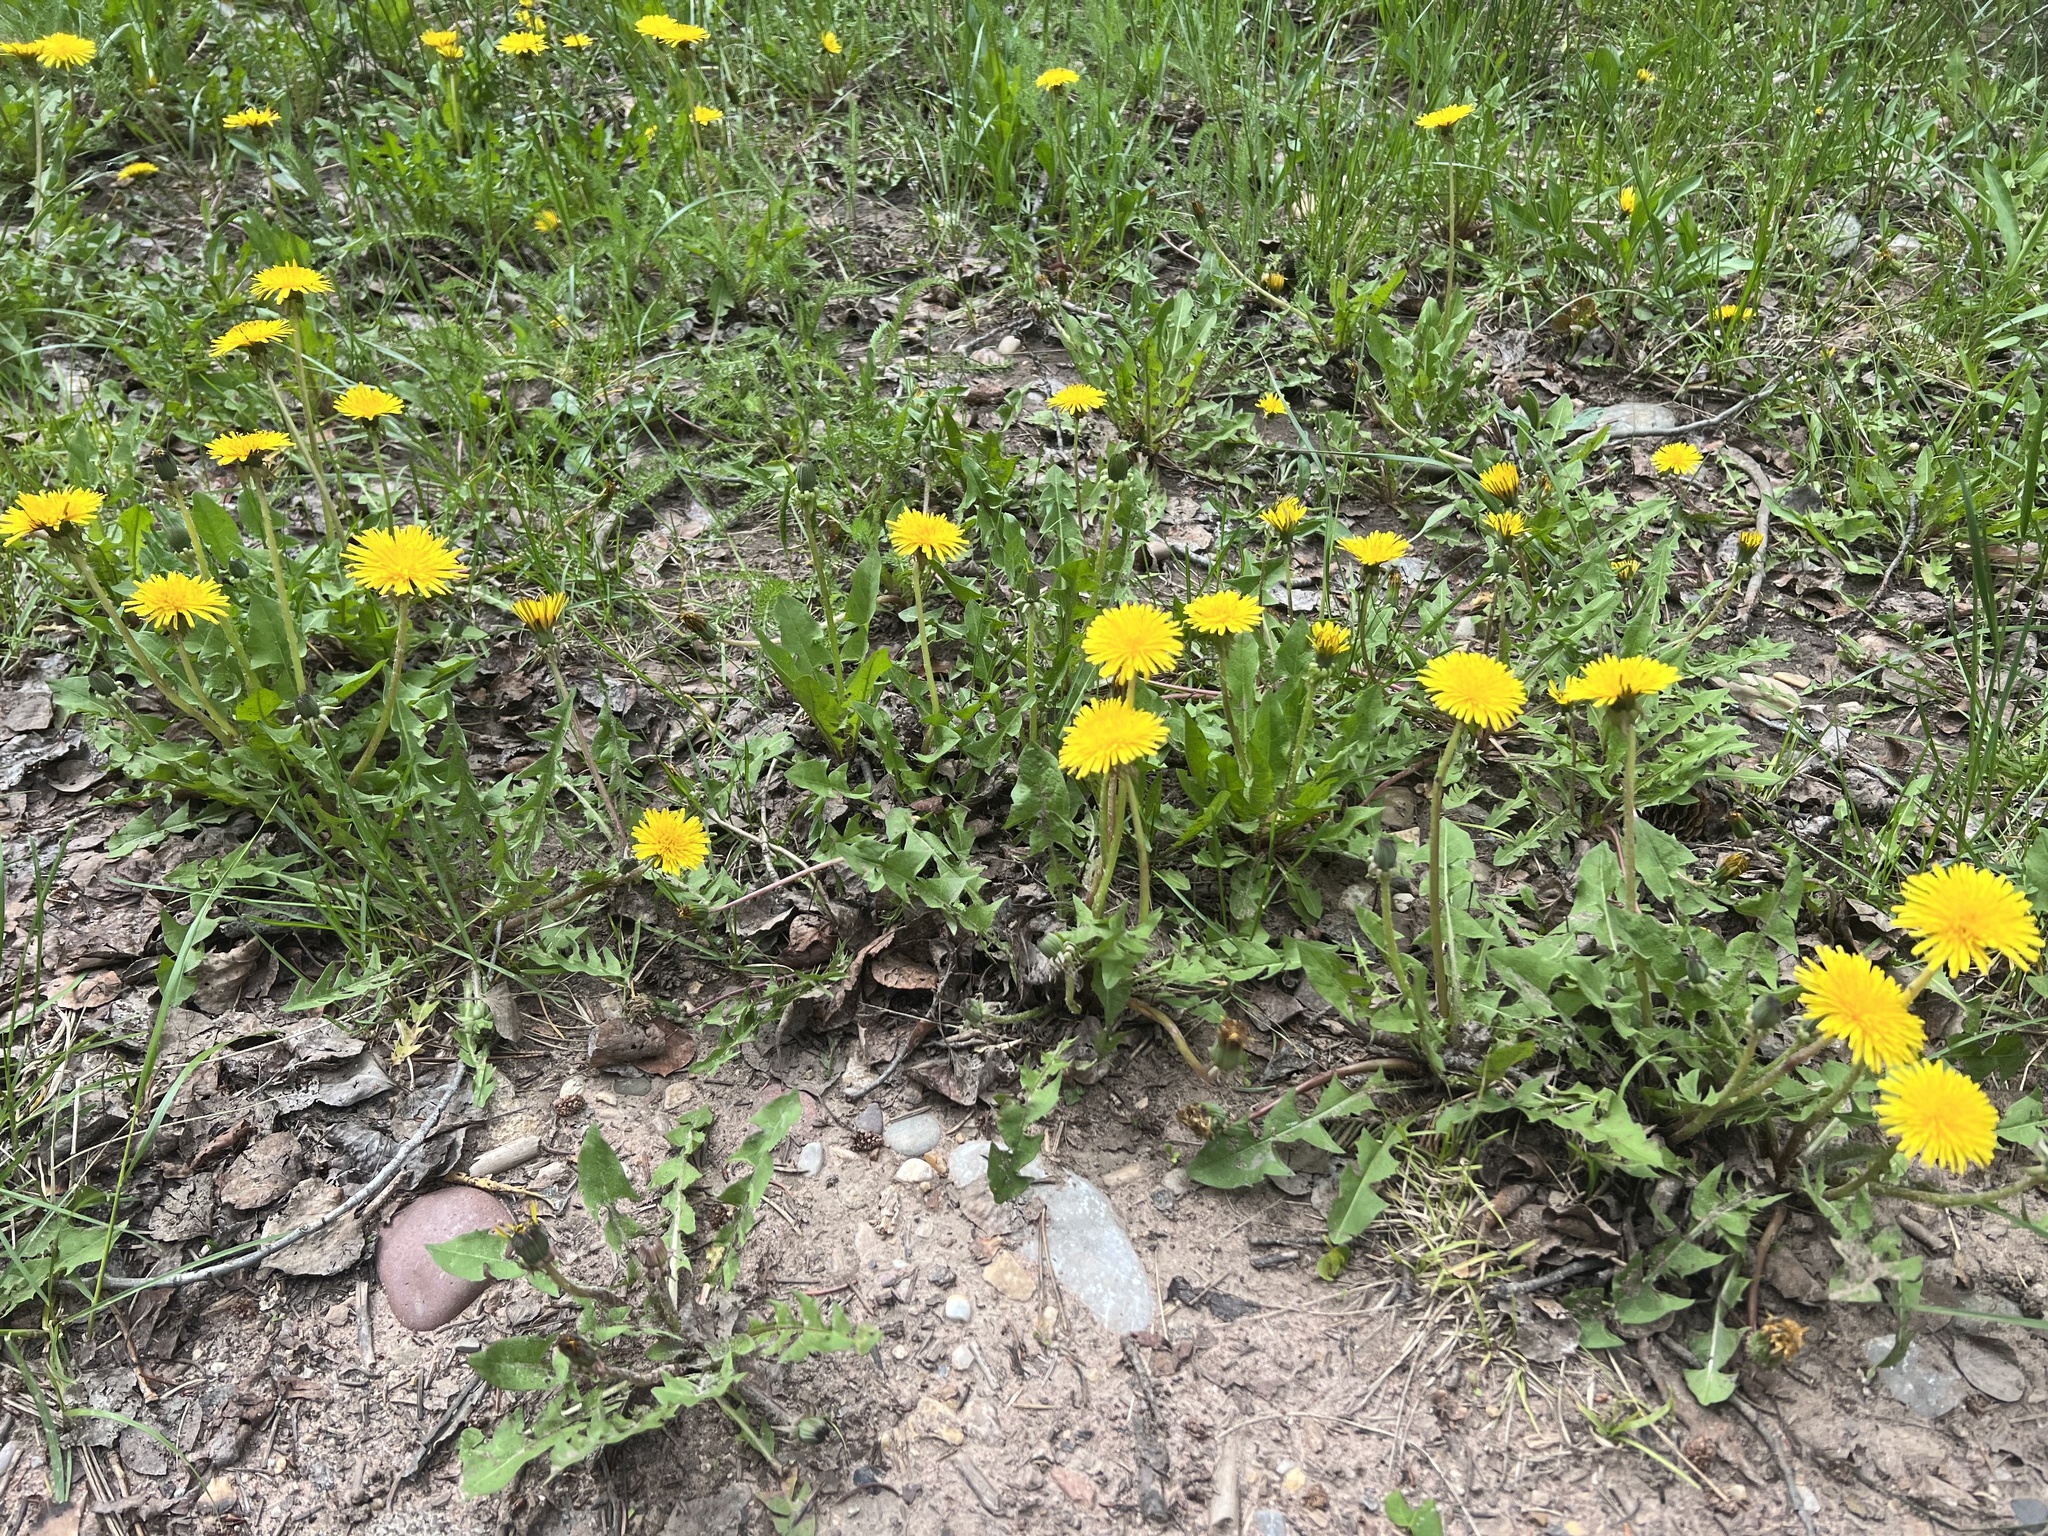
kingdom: Plantae
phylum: Tracheophyta
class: Magnoliopsida
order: Asterales
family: Asteraceae
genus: Taraxacum
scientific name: Taraxacum officinale
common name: Common dandelion
